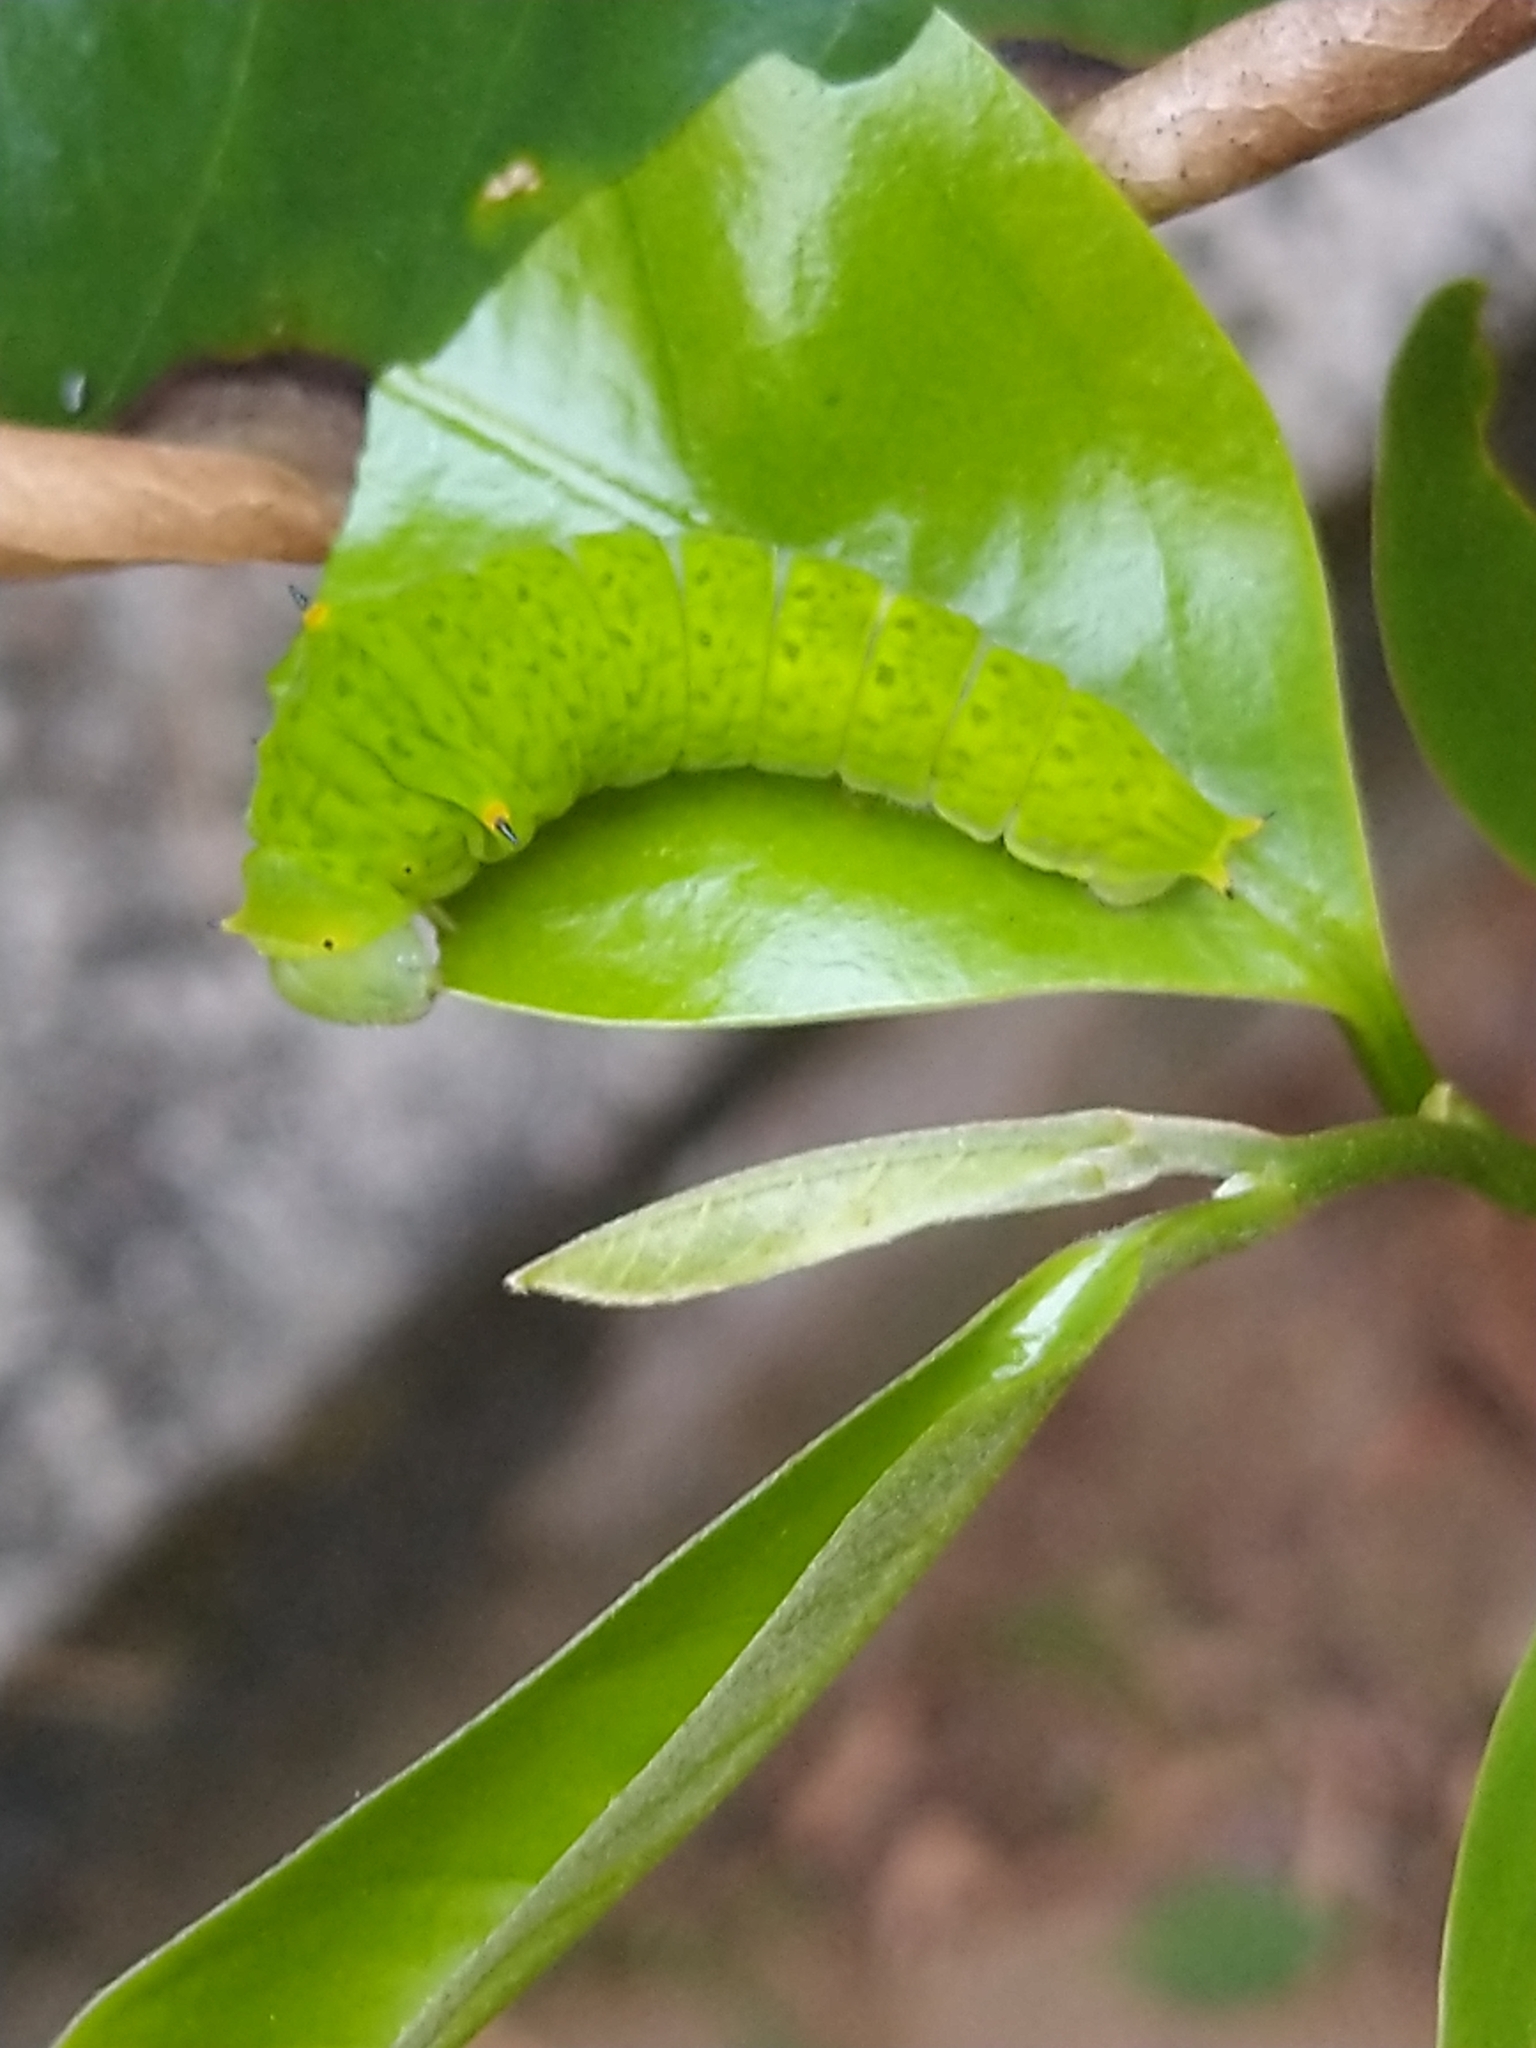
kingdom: Animalia
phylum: Arthropoda
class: Insecta
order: Lepidoptera
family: Papilionidae
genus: Graphium
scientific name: Graphium agamemnon
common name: Tailed jay
